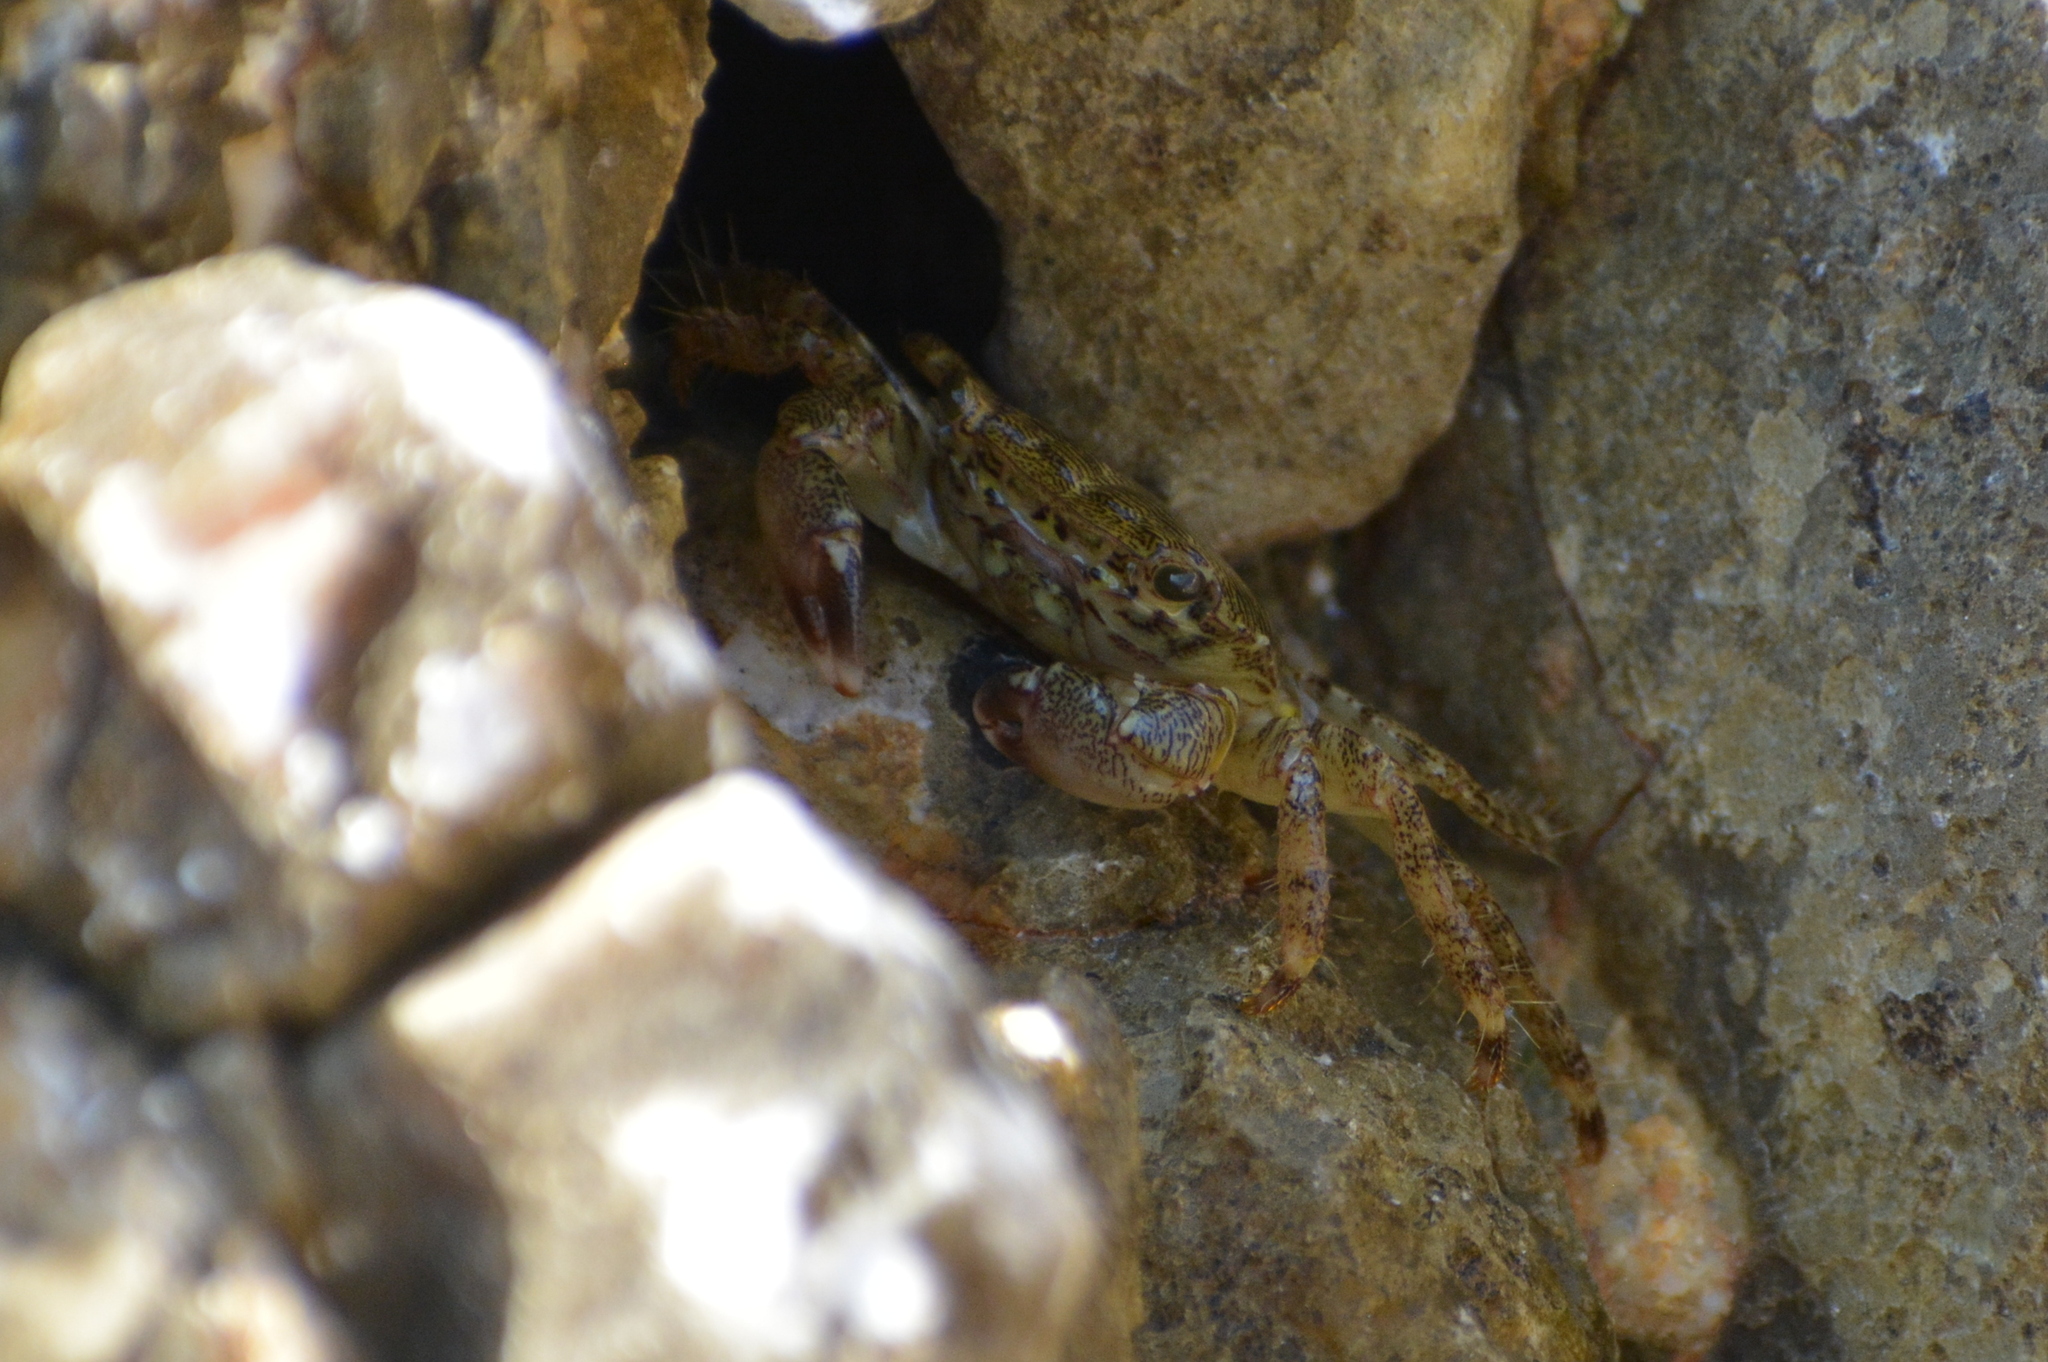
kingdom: Animalia
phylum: Arthropoda
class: Malacostraca
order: Decapoda
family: Grapsidae
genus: Pachygrapsus
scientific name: Pachygrapsus marmoratus
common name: Marbled rock crab
